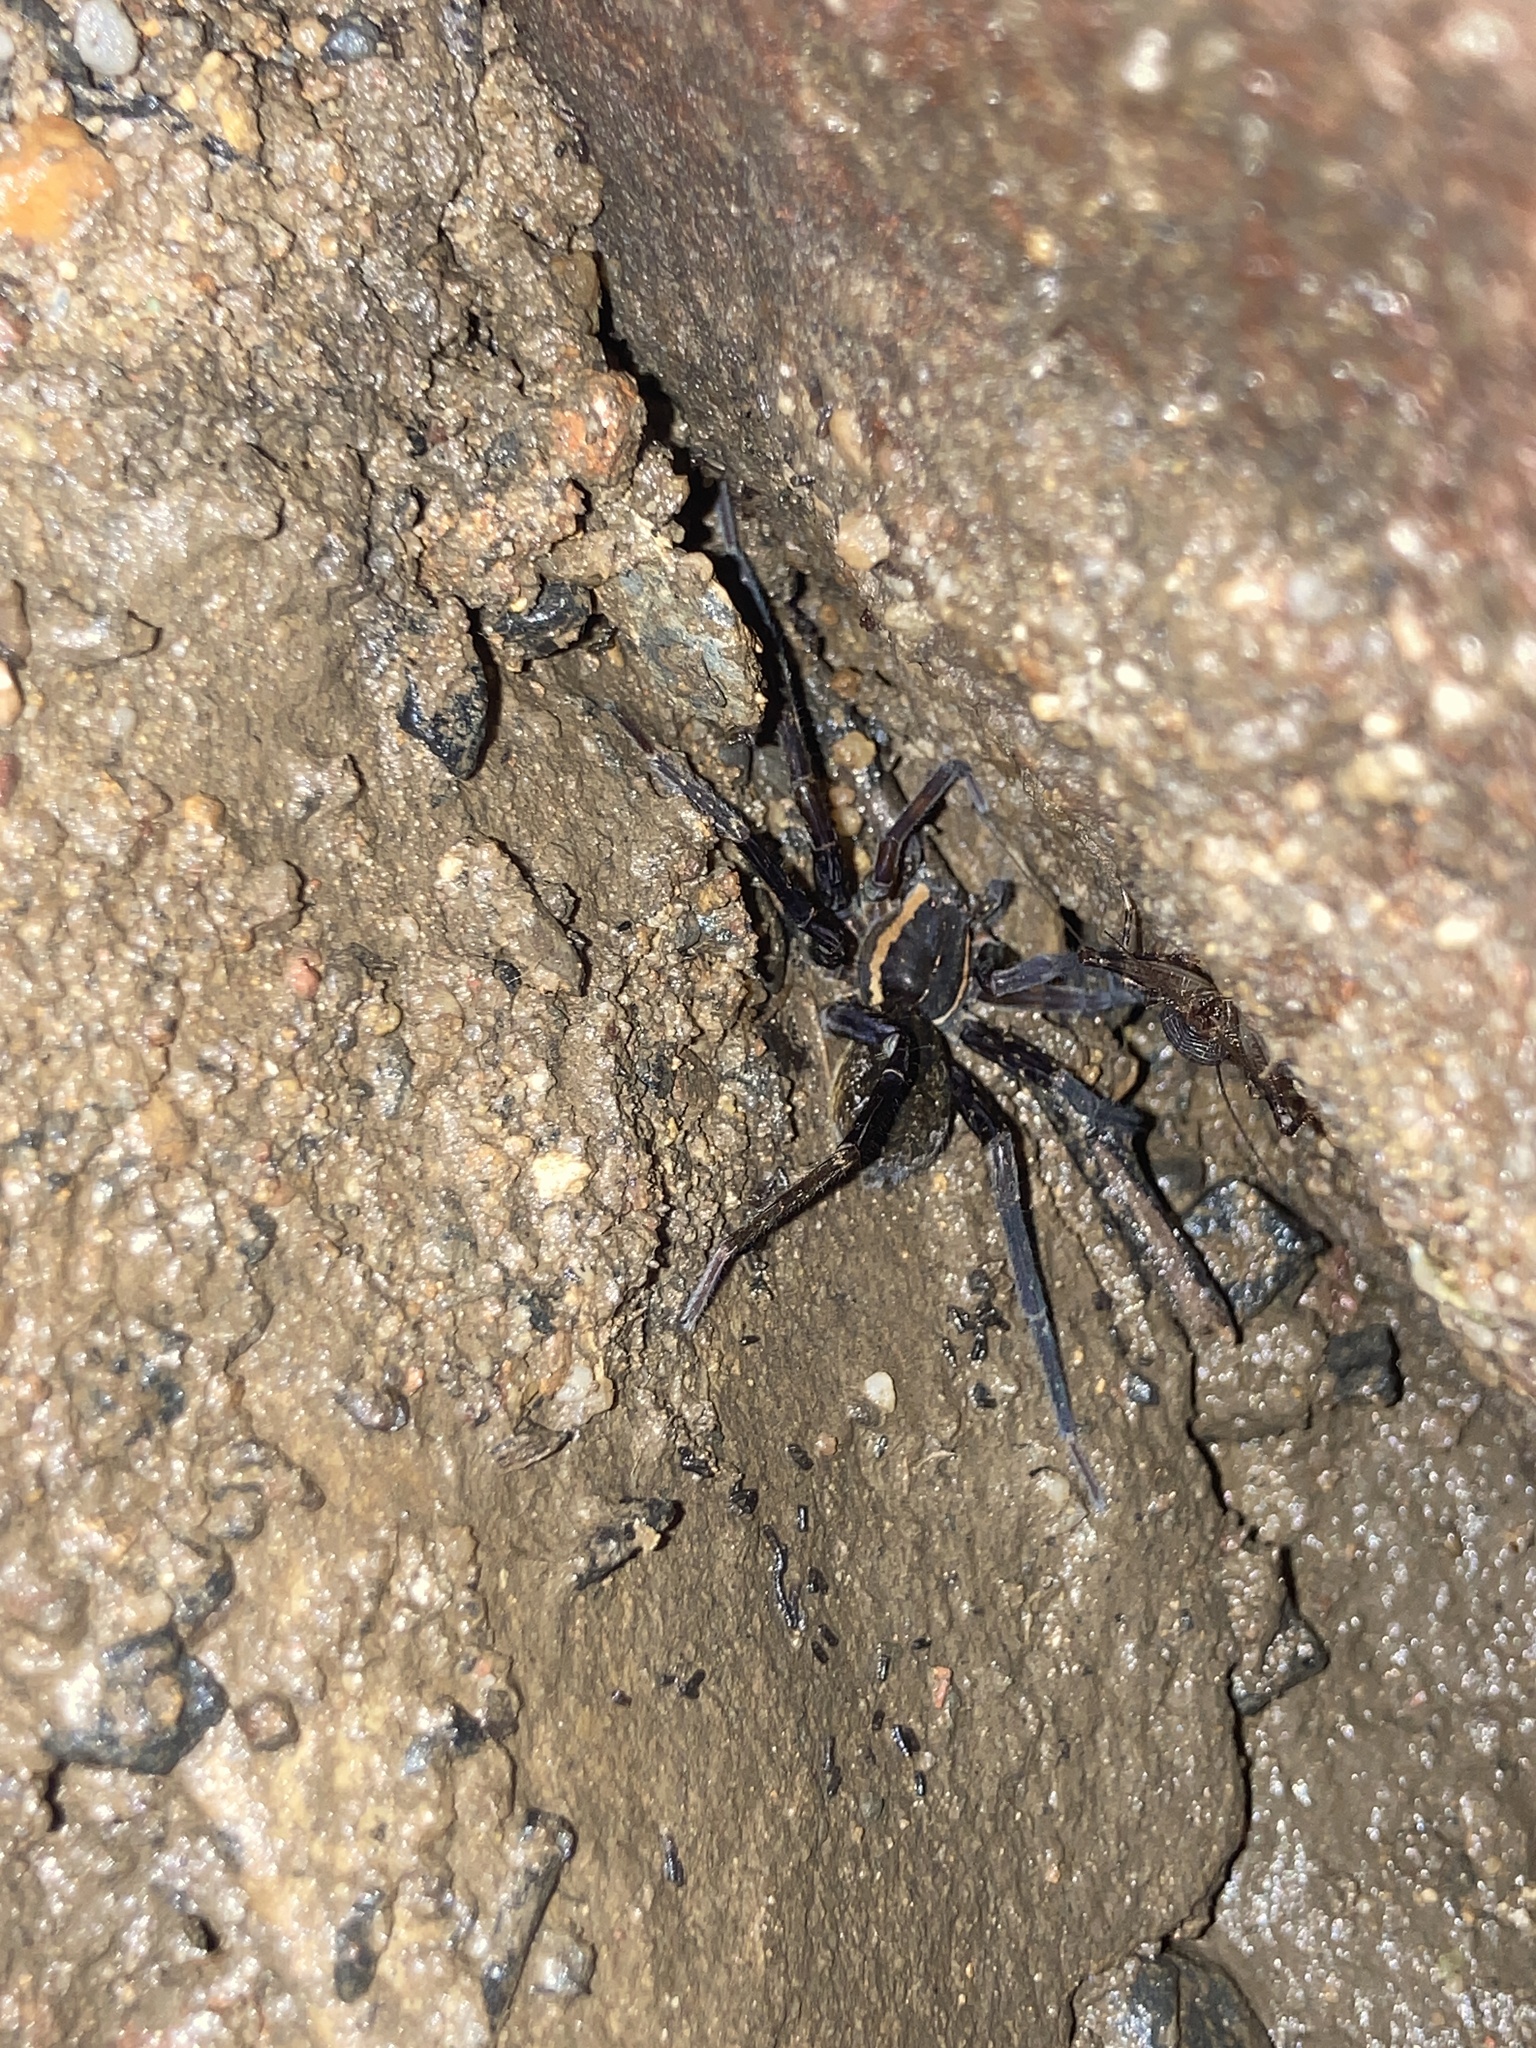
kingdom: Animalia
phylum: Arthropoda
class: Arachnida
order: Araneae
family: Pisauridae
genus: Dolomedes
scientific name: Dolomedes
